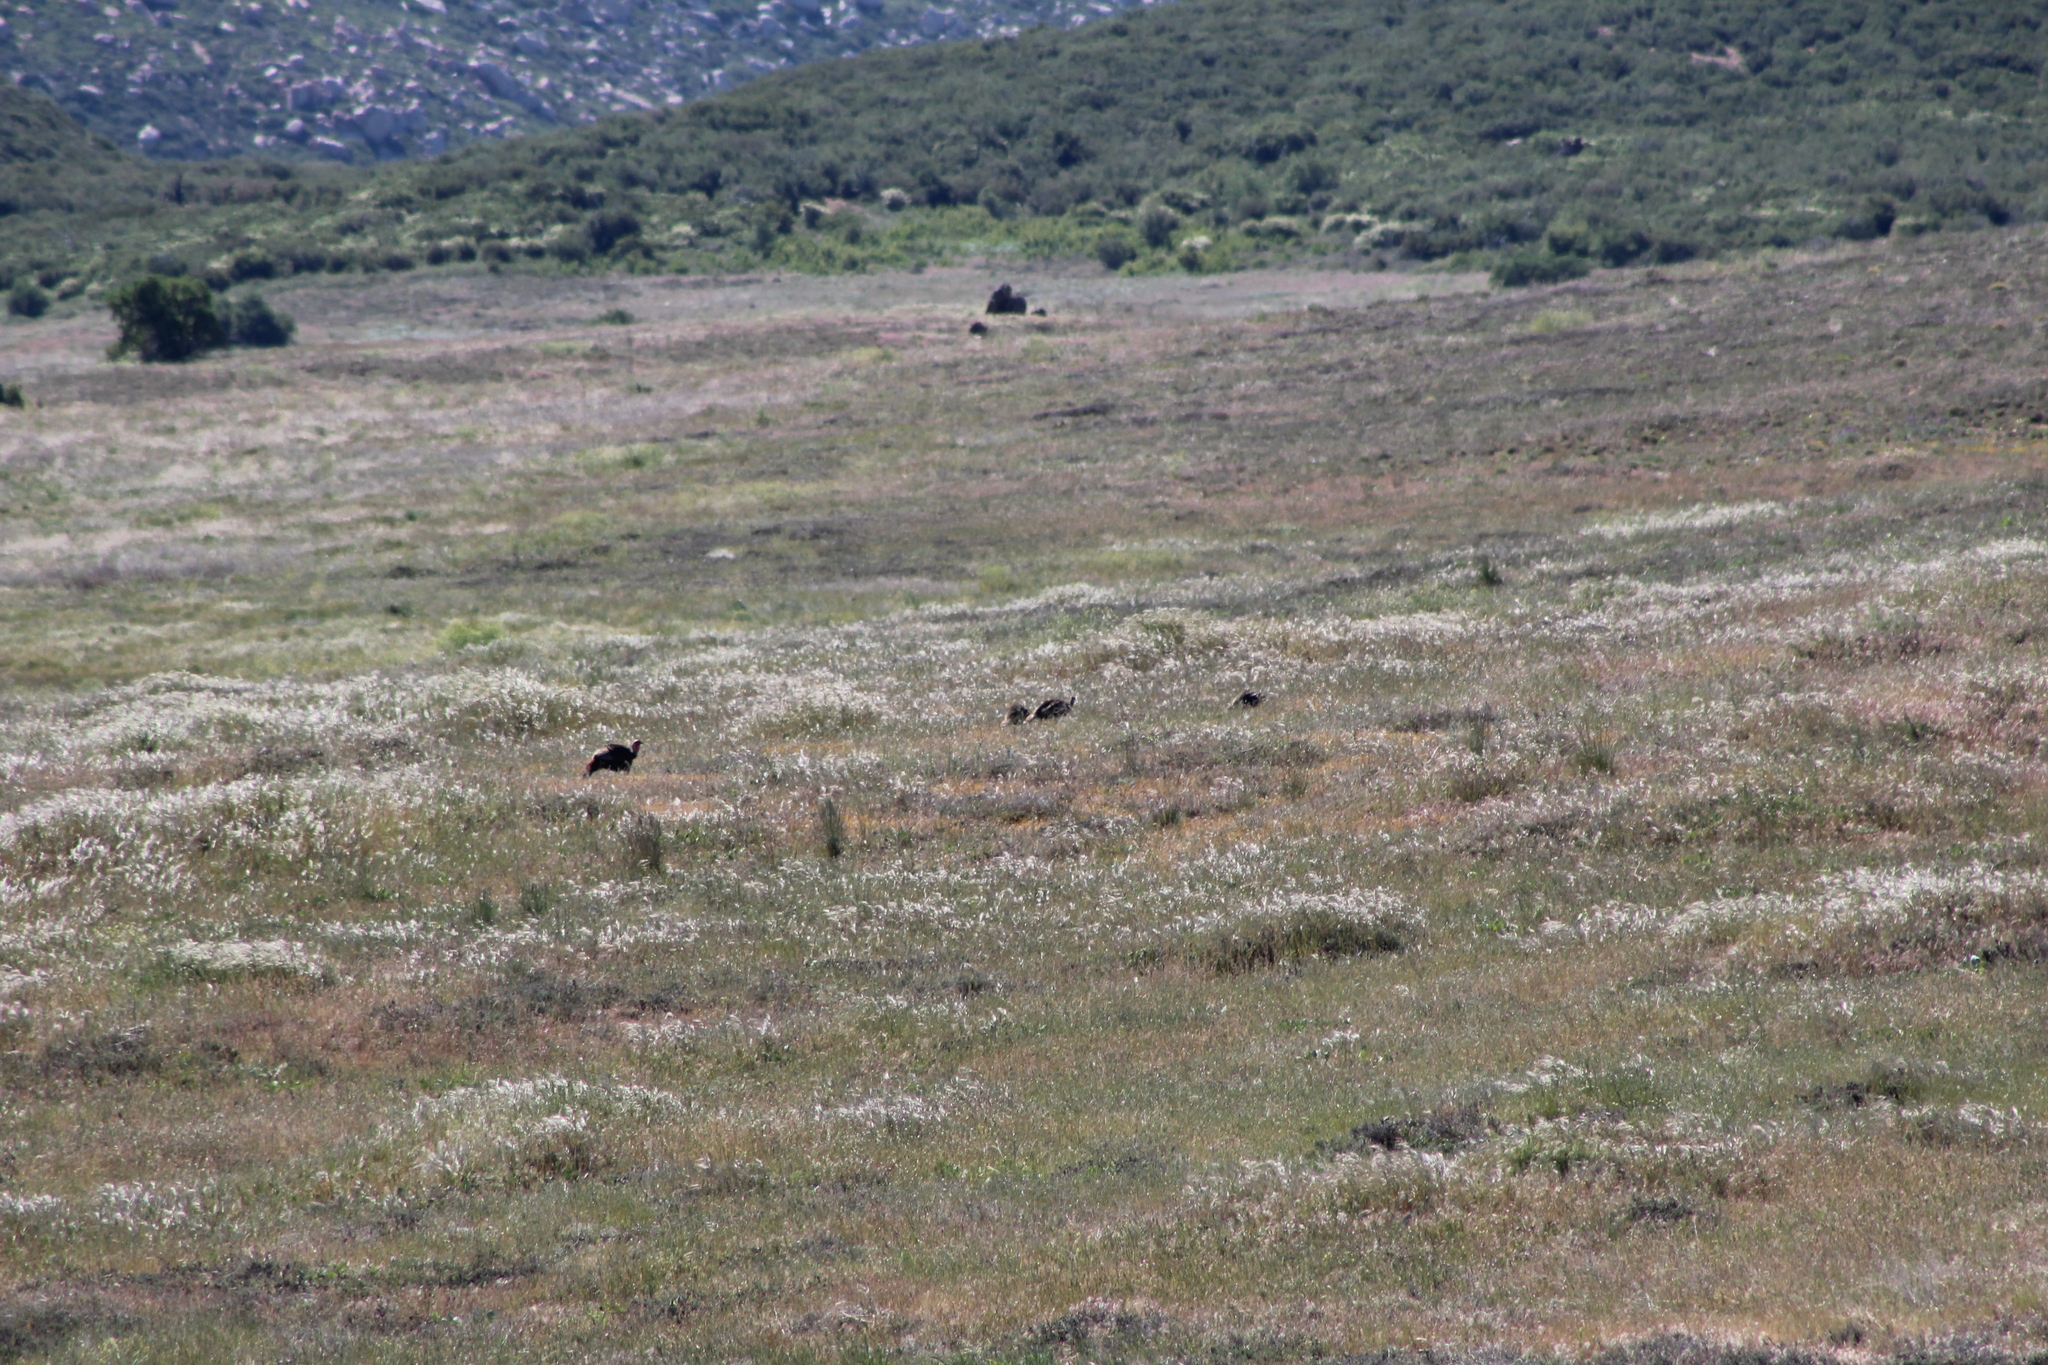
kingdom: Animalia
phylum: Chordata
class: Aves
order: Galliformes
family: Phasianidae
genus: Meleagris
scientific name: Meleagris gallopavo
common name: Wild turkey
